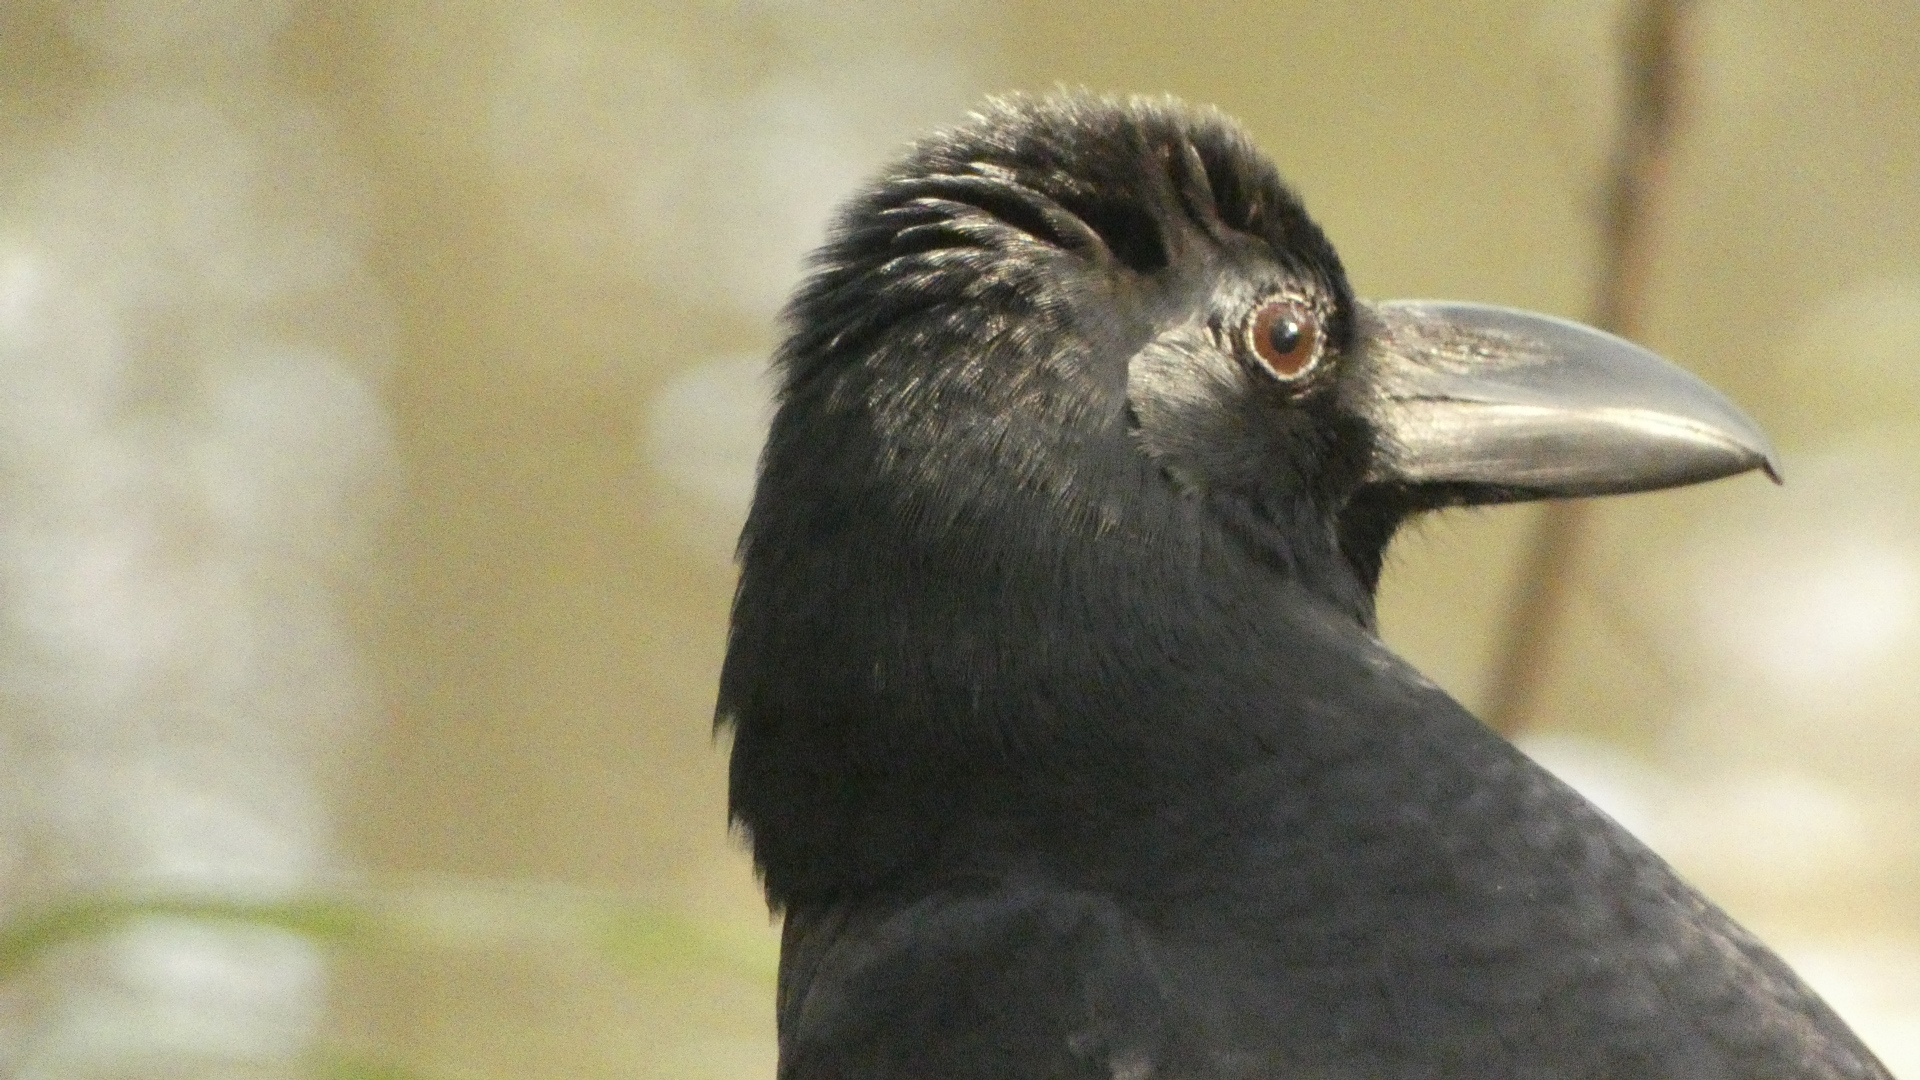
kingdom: Animalia
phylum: Chordata
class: Aves
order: Passeriformes
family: Corvidae
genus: Corvus
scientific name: Corvus macrorhynchos
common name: Large-billed crow
